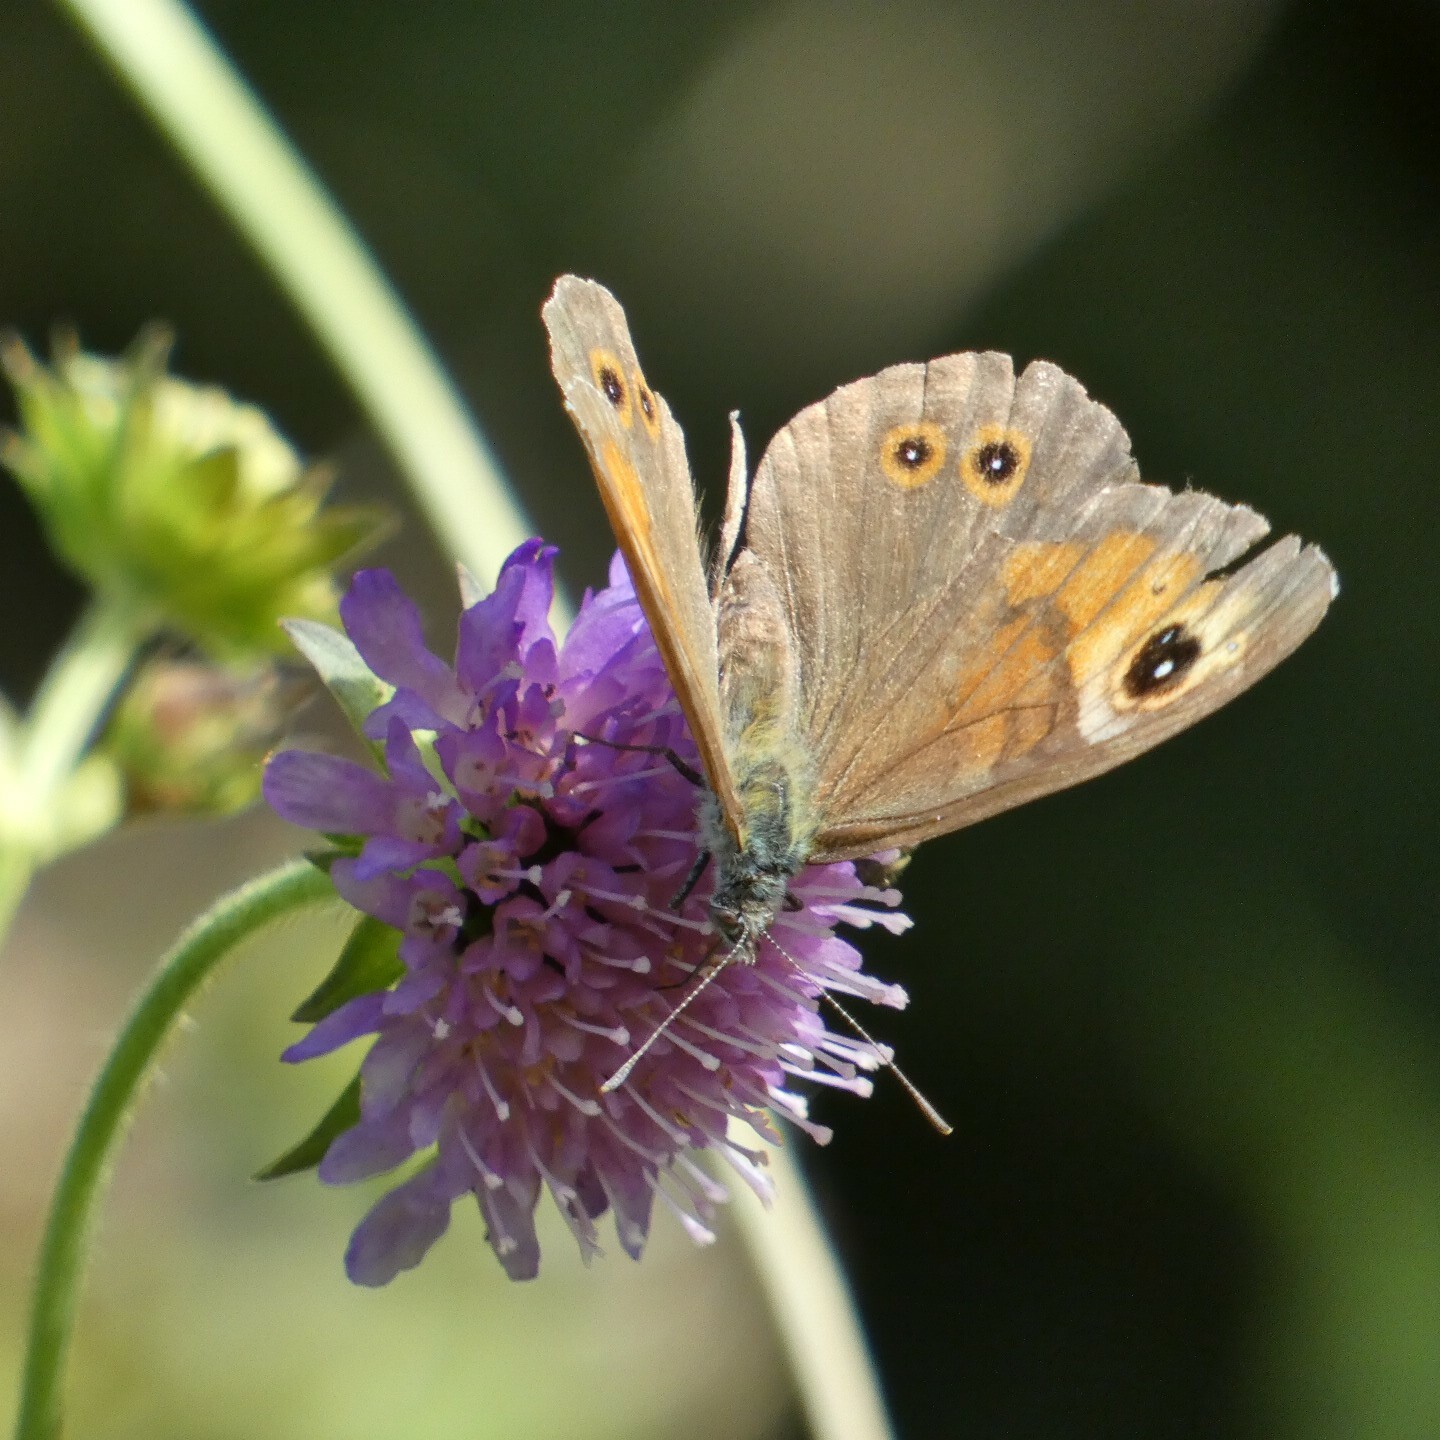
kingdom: Animalia
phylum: Arthropoda
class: Insecta
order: Lepidoptera
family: Nymphalidae
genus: Pararge
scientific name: Pararge Lasiommata maera
